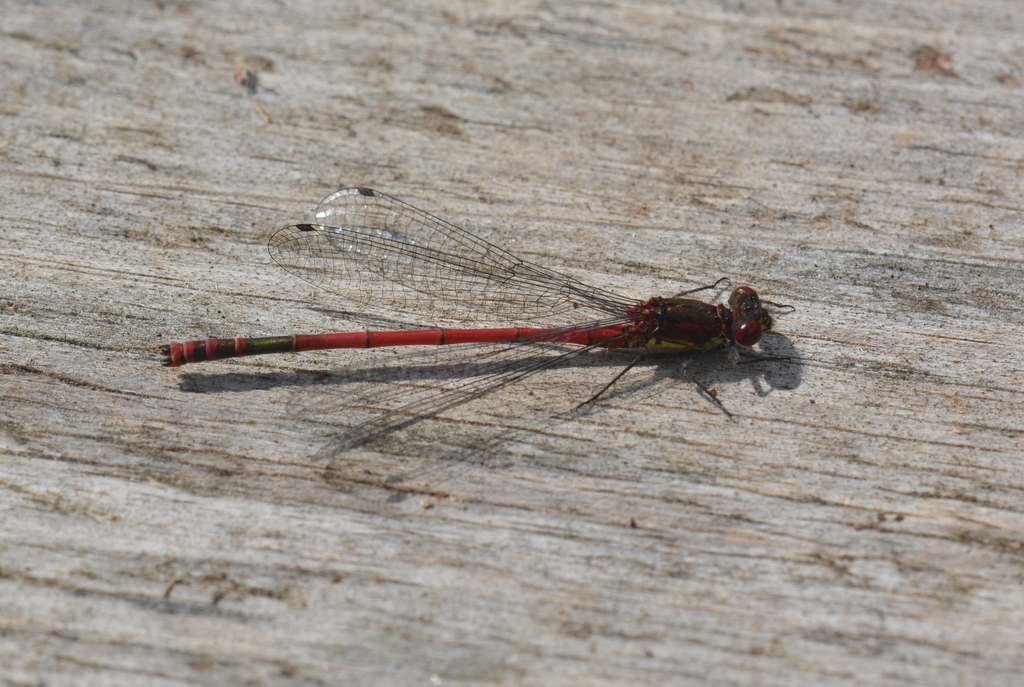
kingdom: Animalia
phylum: Arthropoda
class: Insecta
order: Odonata
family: Coenagrionidae
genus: Pyrrhosoma
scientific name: Pyrrhosoma nymphula
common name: Large red damsel
